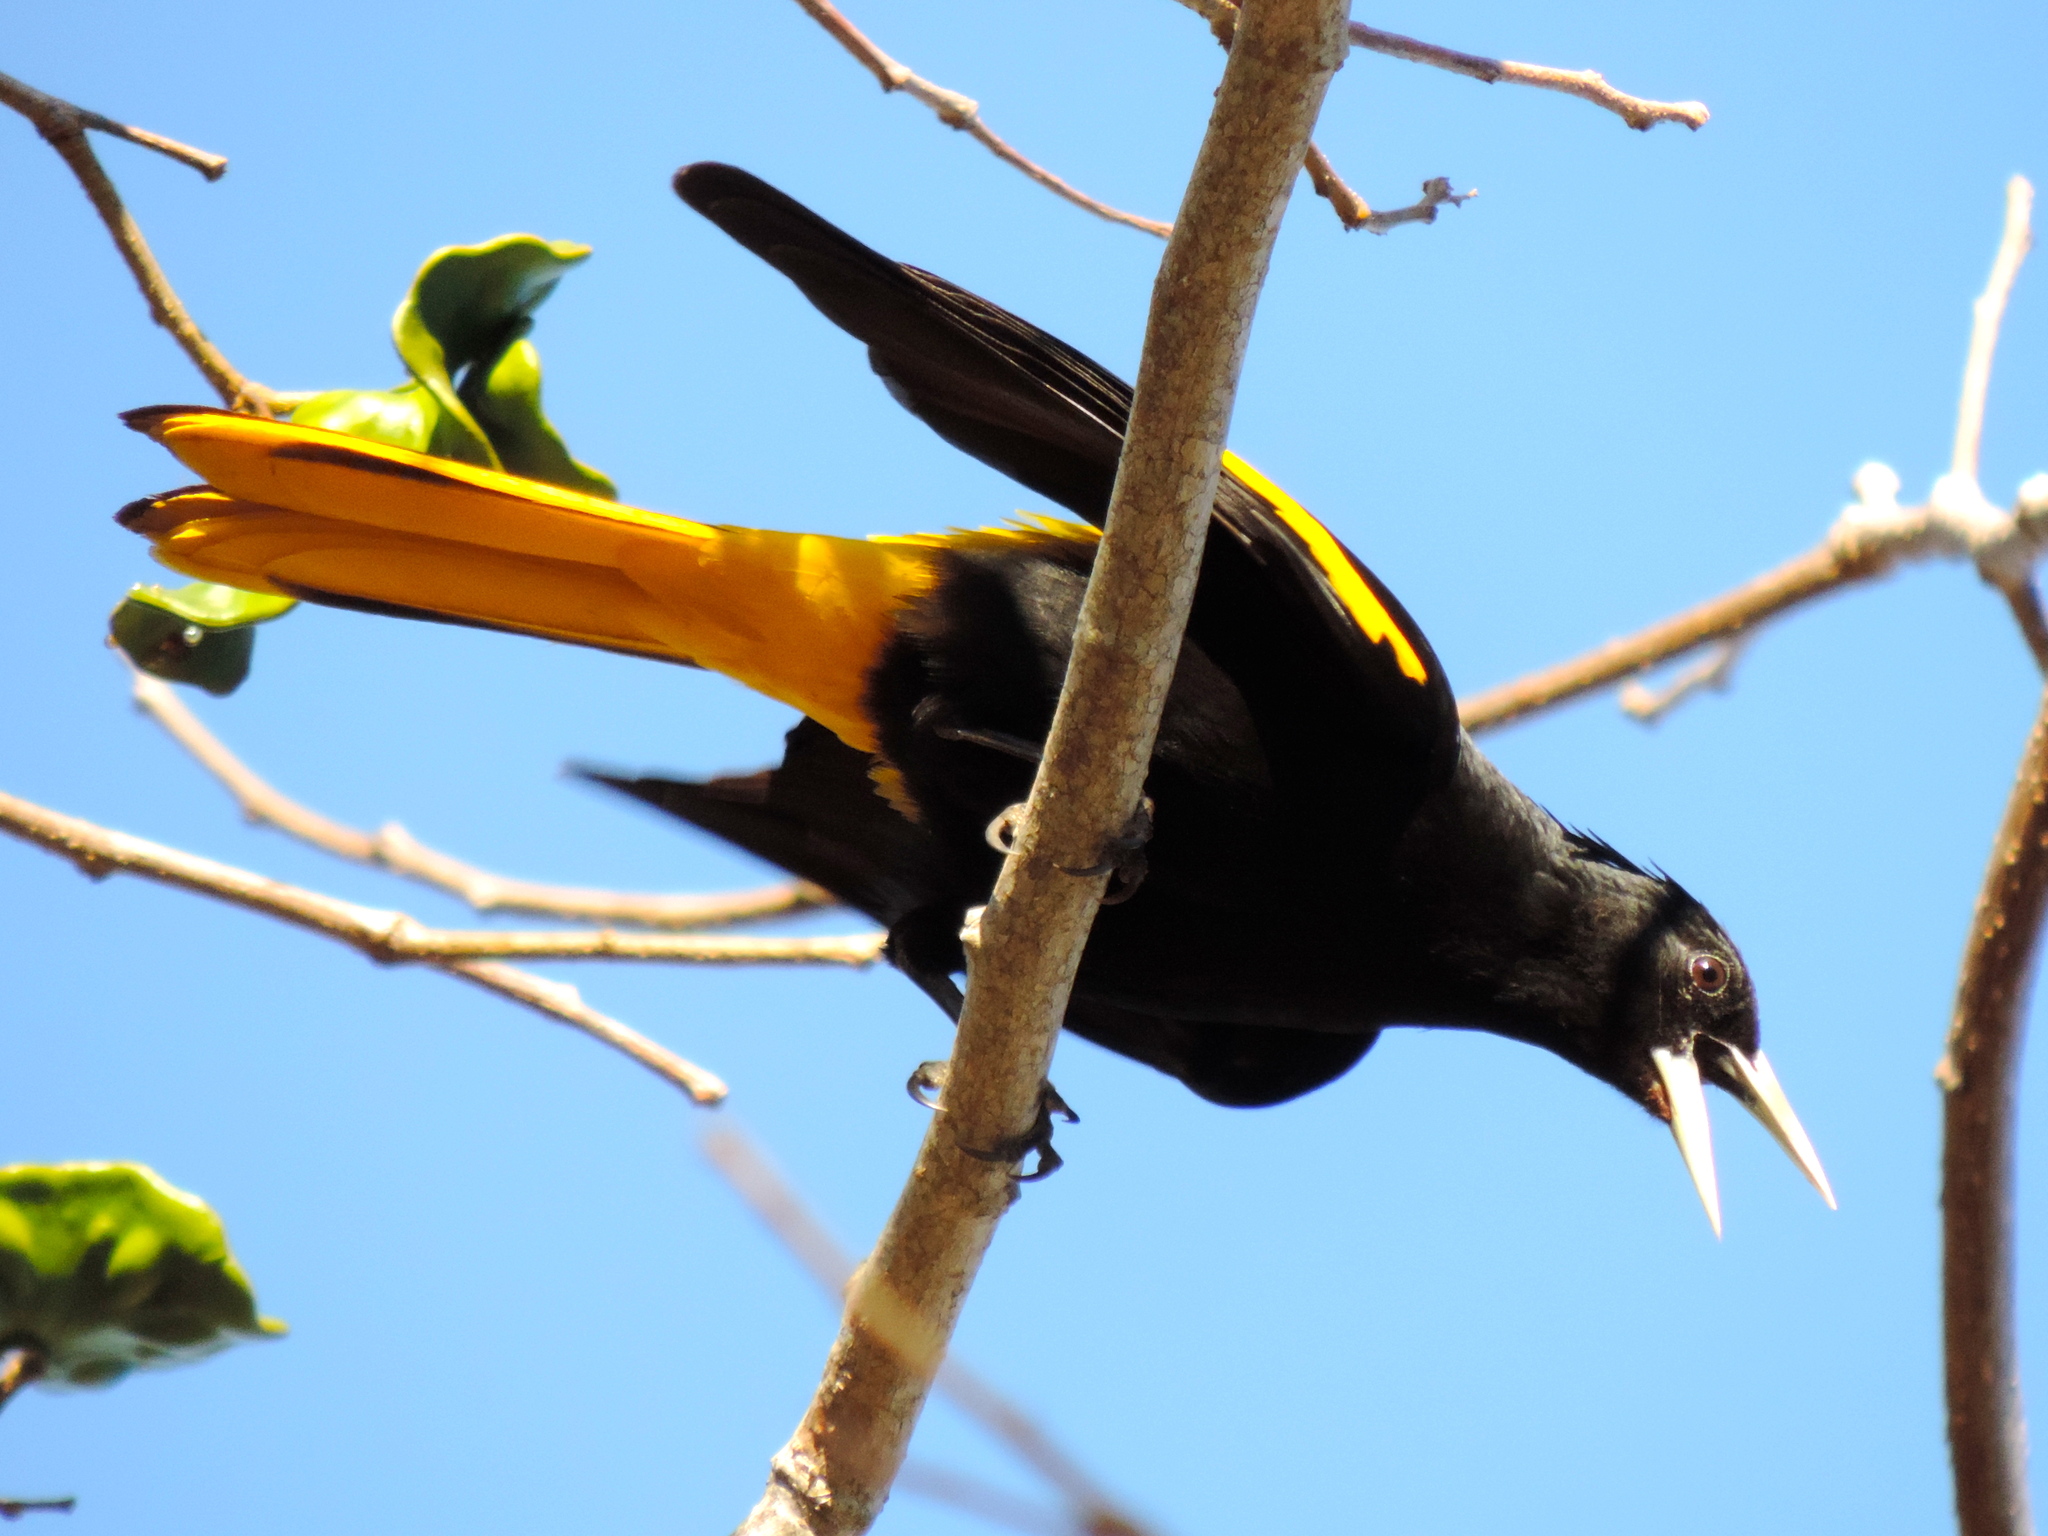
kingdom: Animalia
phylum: Chordata
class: Aves
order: Passeriformes
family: Icteridae
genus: Cacicus
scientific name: Cacicus melanicterus
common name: Yellow-winged cacique
